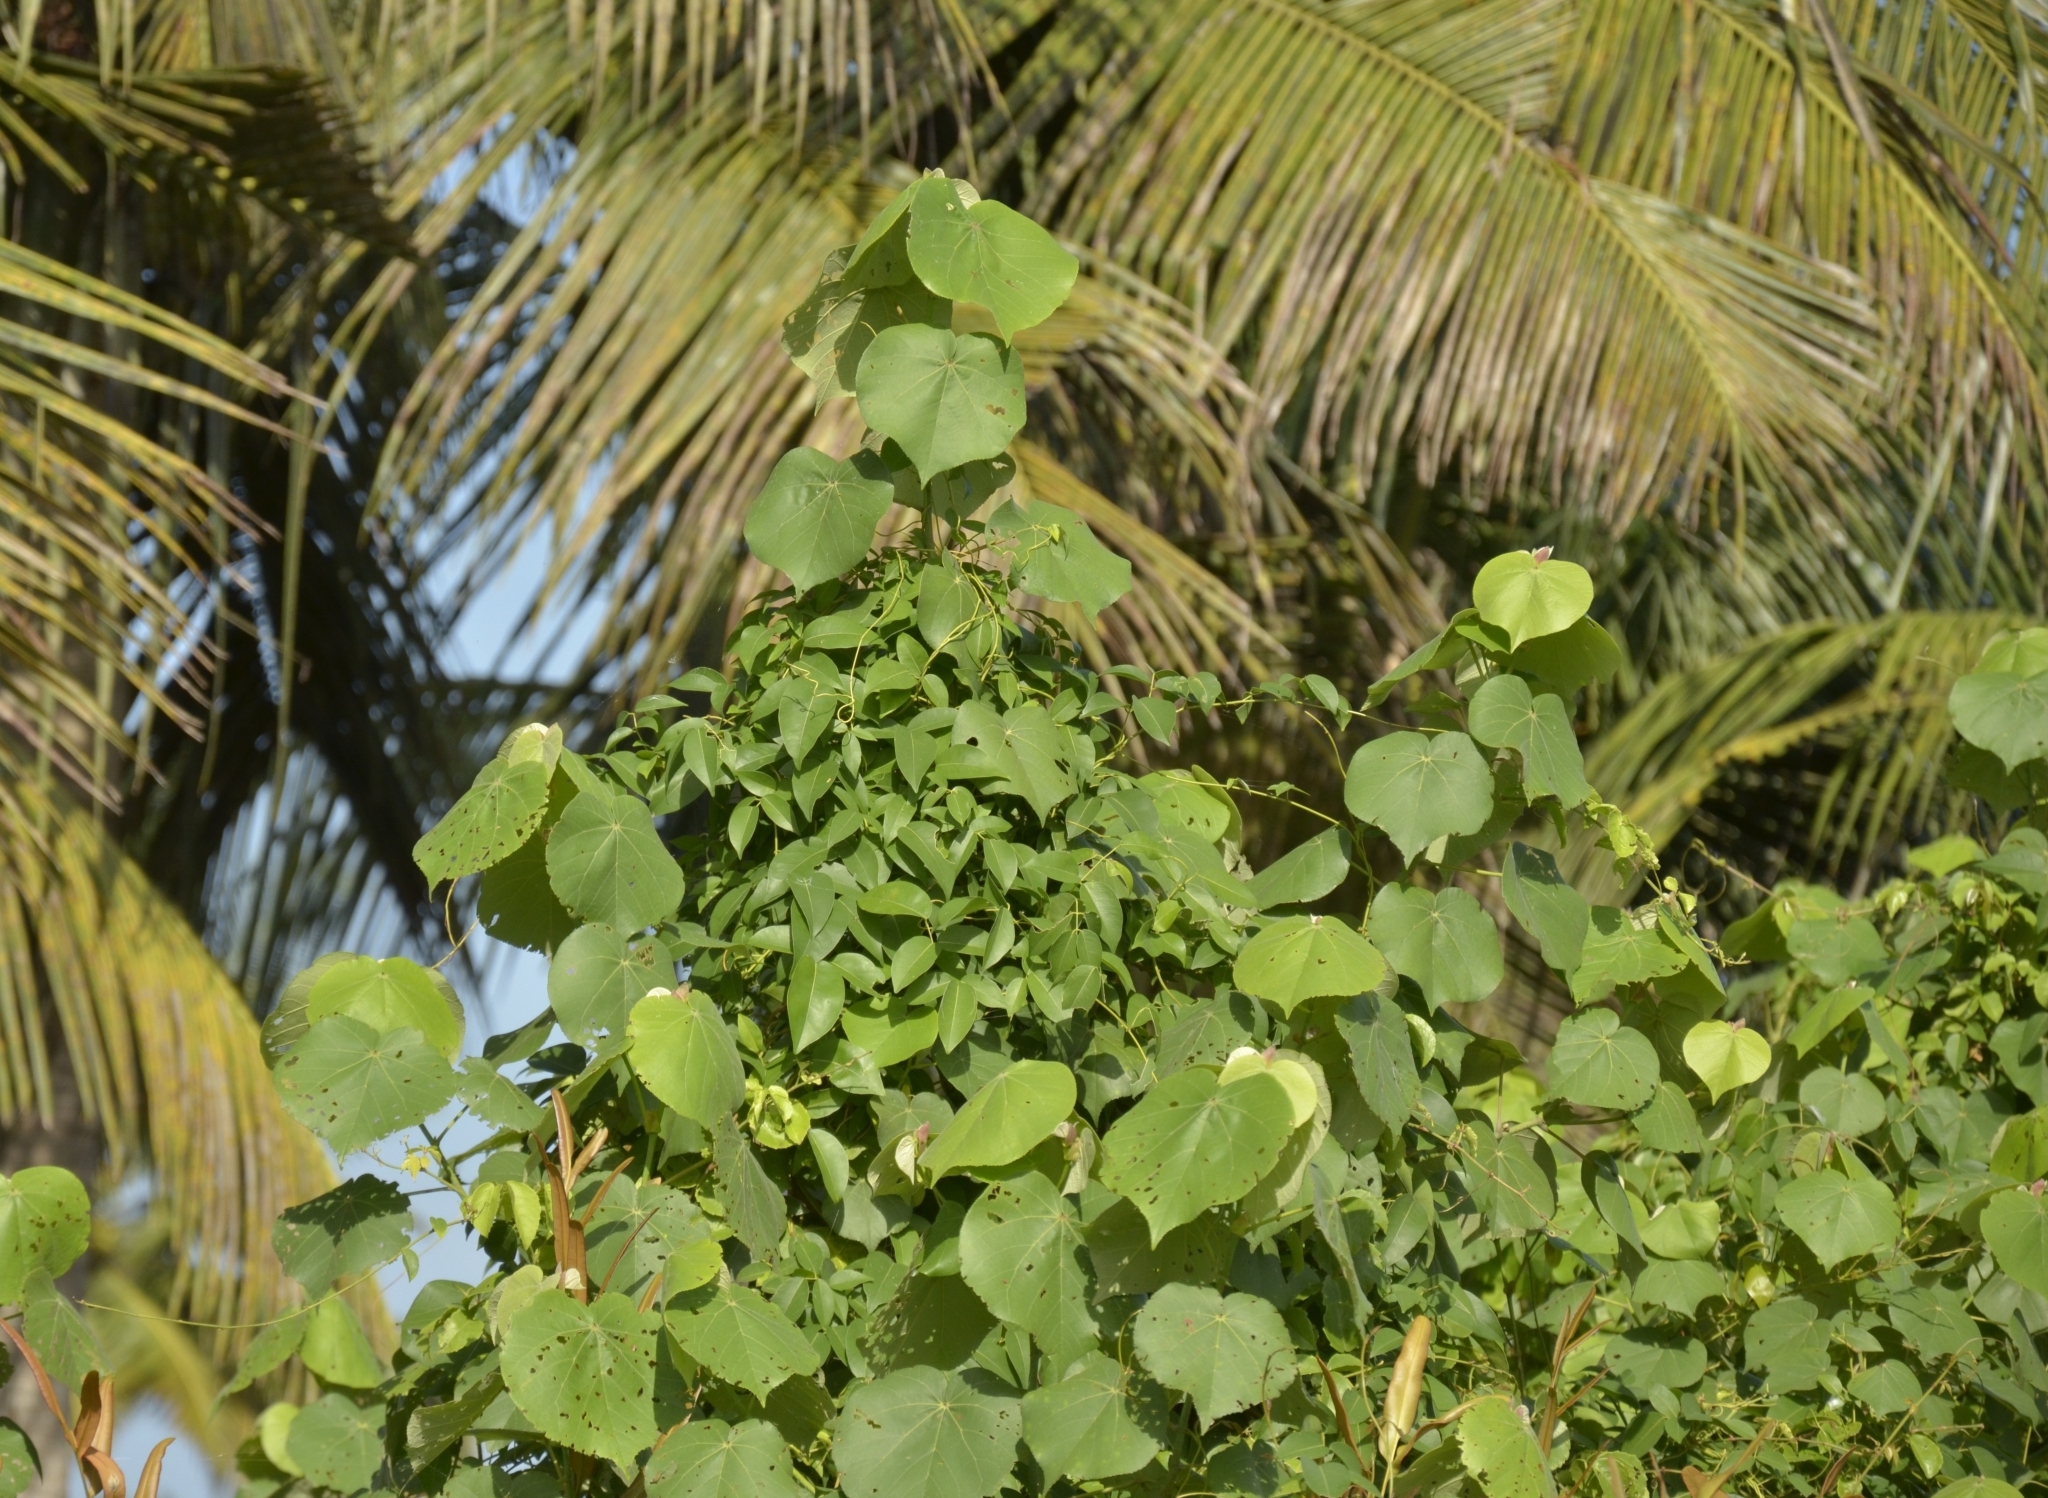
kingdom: Plantae
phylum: Tracheophyta
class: Magnoliopsida
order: Malvales
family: Malvaceae
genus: Talipariti
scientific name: Talipariti tiliaceum
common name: Sea hibiscus
